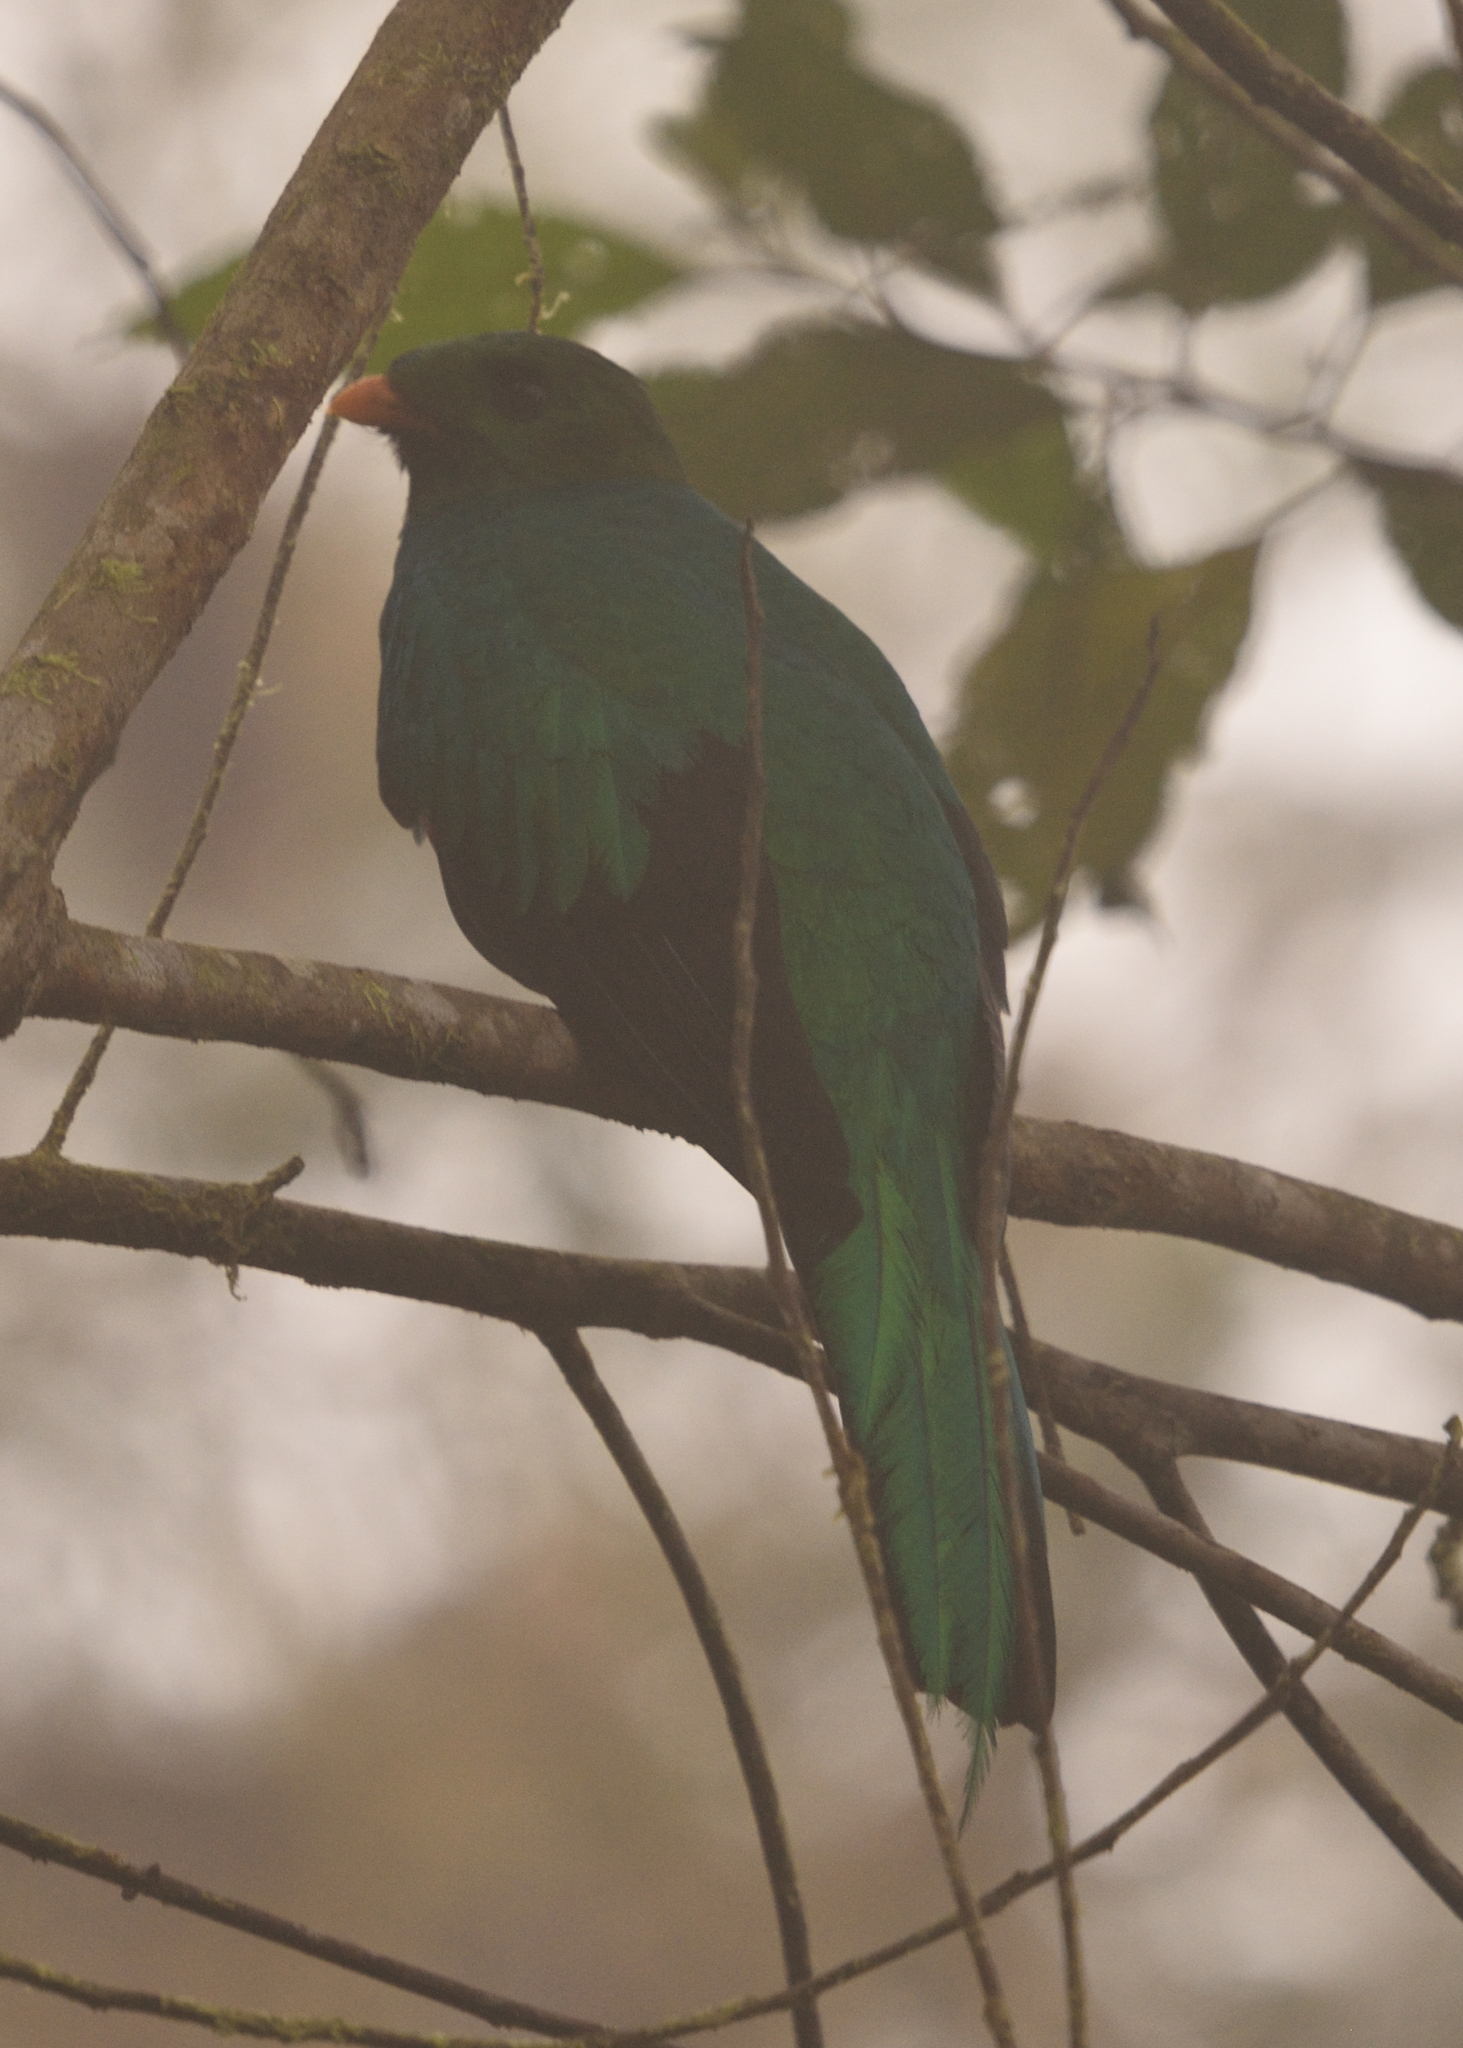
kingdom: Animalia
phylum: Chordata
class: Aves
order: Trogoniformes
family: Trogonidae
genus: Pharomachrus
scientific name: Pharomachrus auriceps
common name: Golden-headed quetzal
